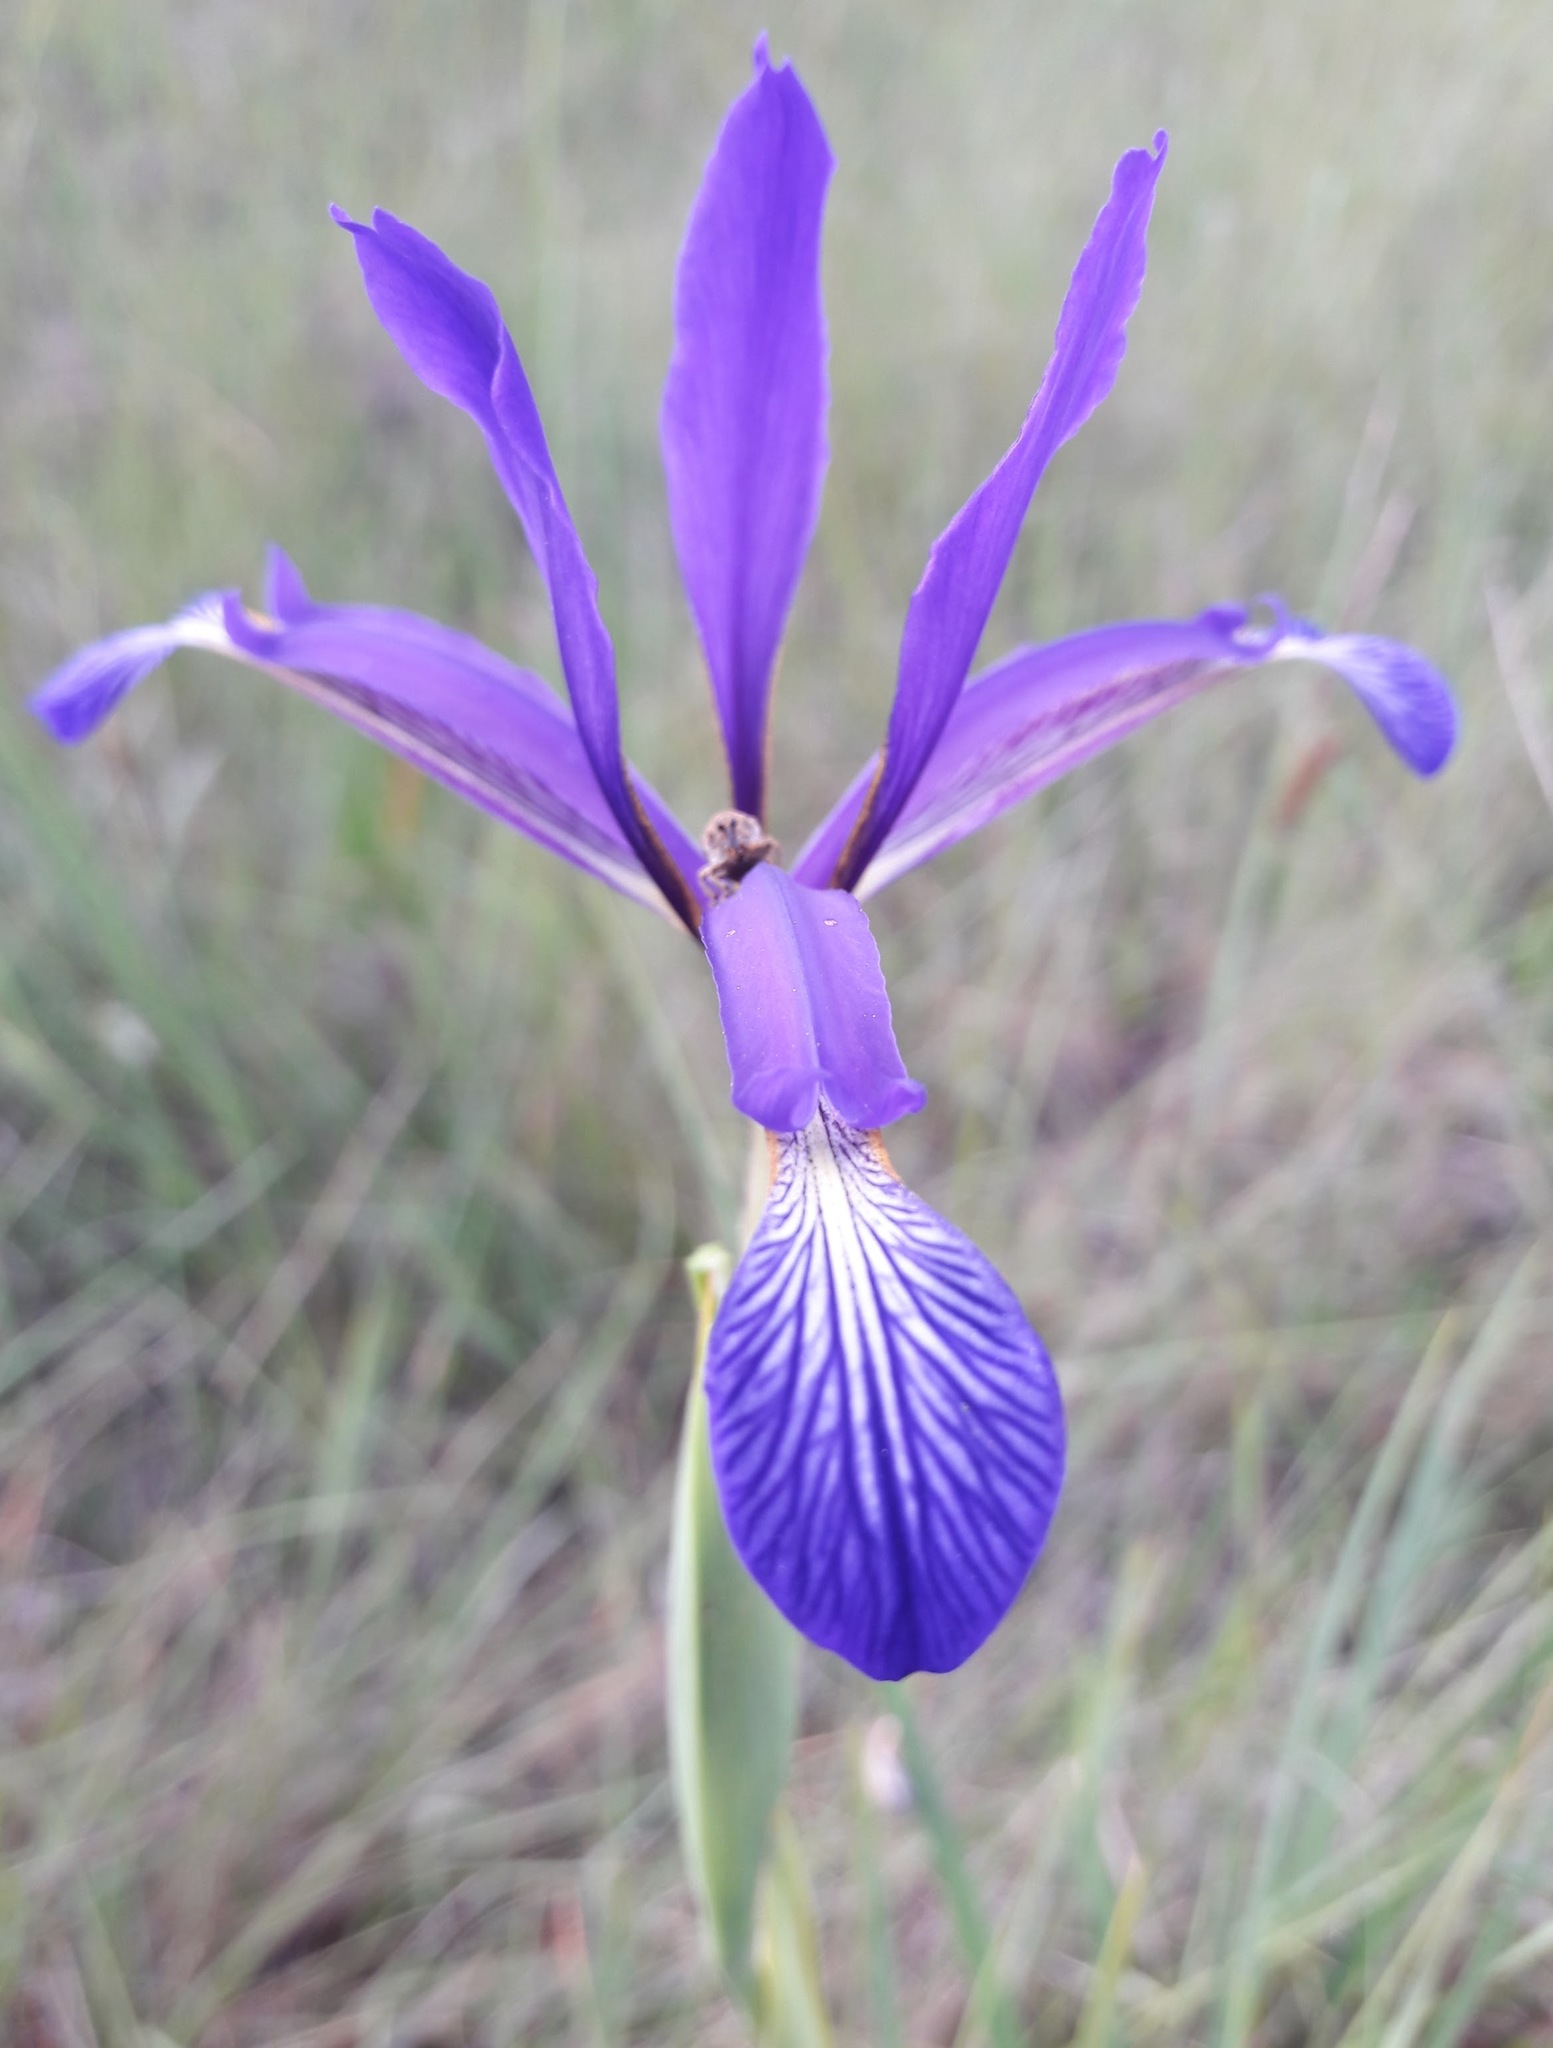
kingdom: Plantae
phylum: Tracheophyta
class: Liliopsida
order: Asparagales
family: Iridaceae
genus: Iris
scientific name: Iris reichenbachiana
